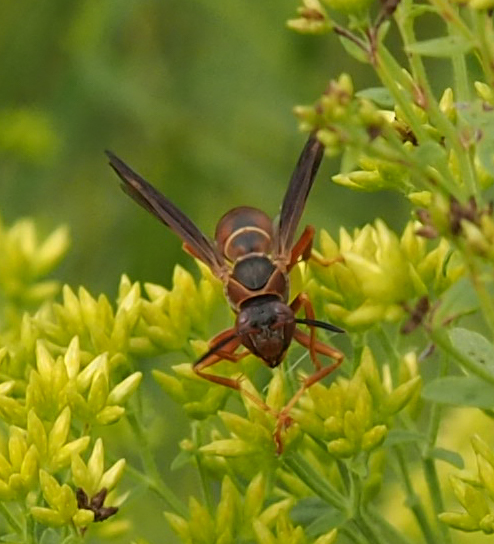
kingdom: Animalia
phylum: Arthropoda
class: Insecta
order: Hymenoptera
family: Eumenidae
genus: Polistes
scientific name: Polistes fuscatus
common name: Dark paper wasp
